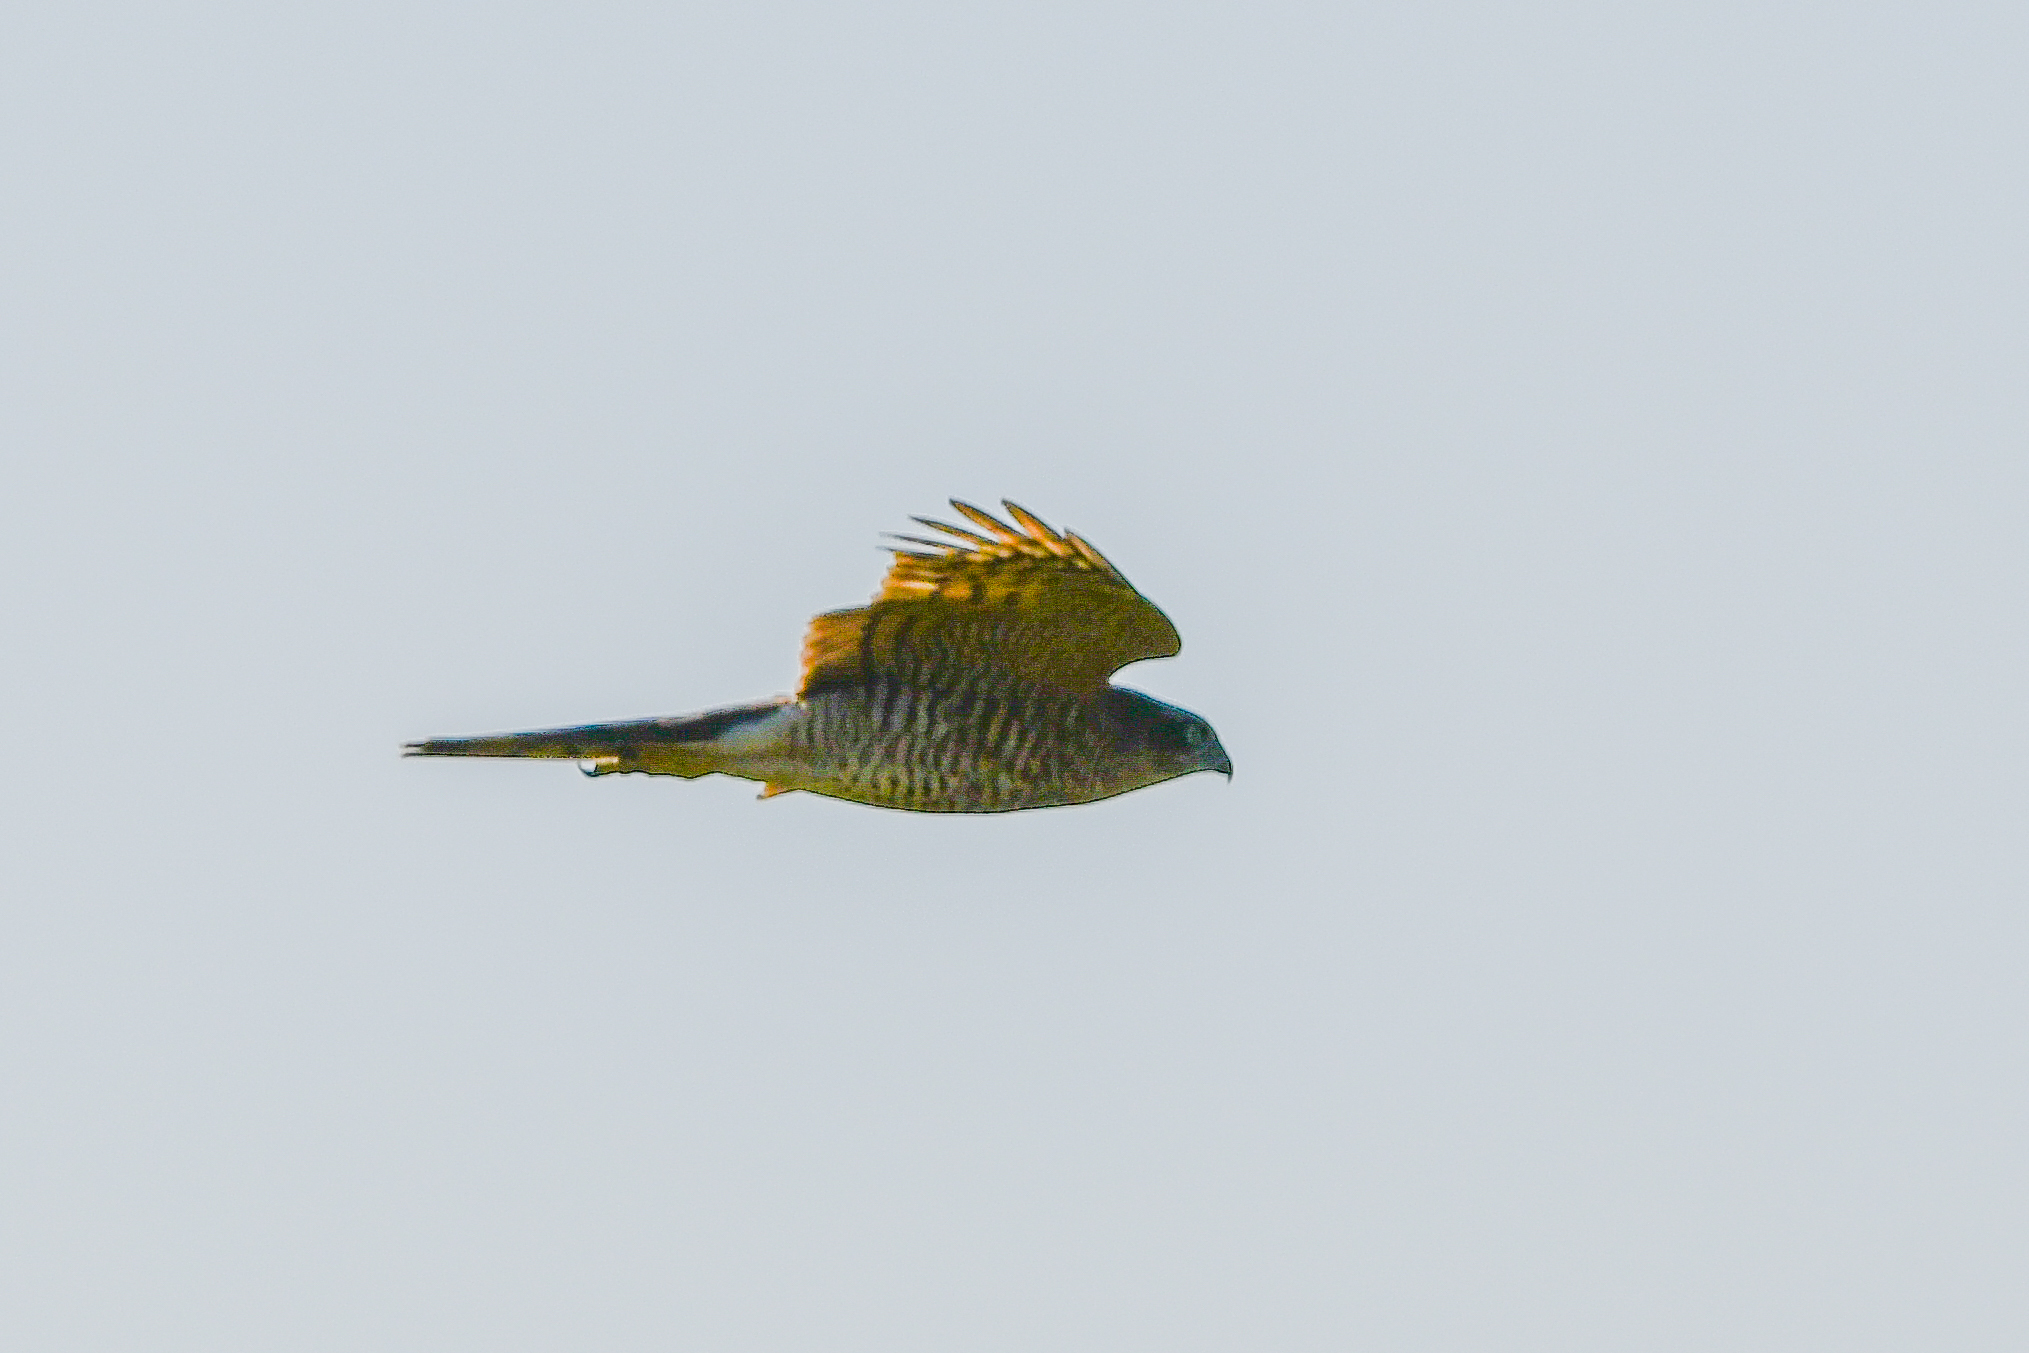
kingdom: Animalia
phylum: Chordata
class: Aves
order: Accipitriformes
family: Accipitridae
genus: Accipiter
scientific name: Accipiter nisus
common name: Eurasian sparrowhawk
